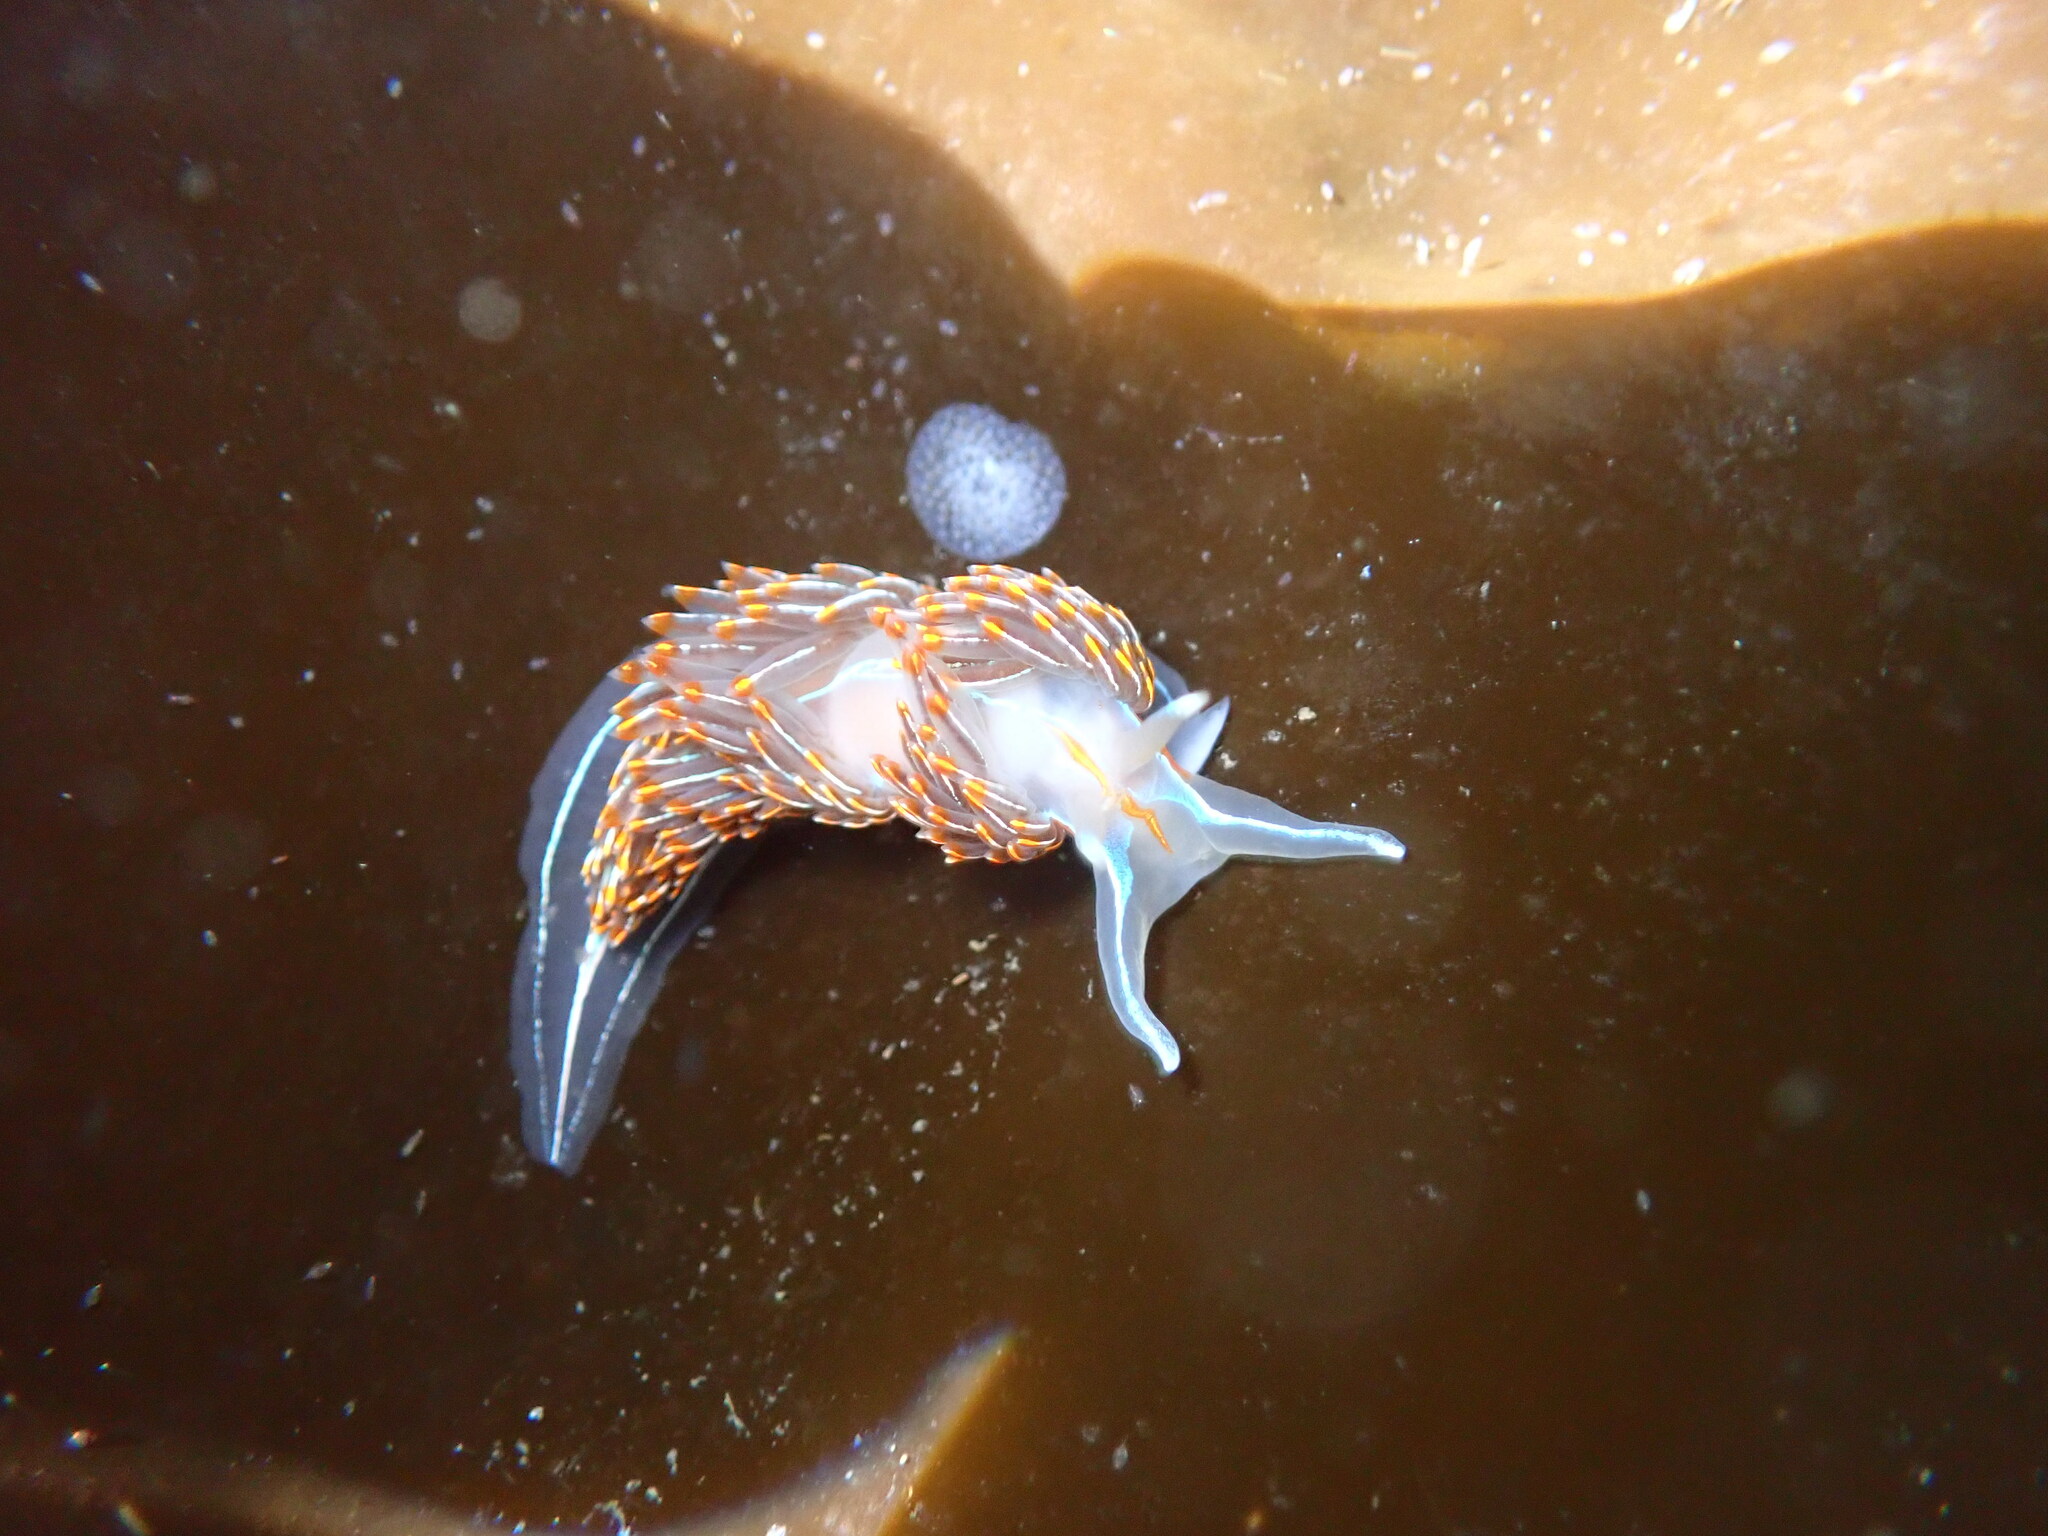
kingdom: Animalia
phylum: Mollusca
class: Gastropoda
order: Nudibranchia
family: Myrrhinidae
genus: Hermissenda
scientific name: Hermissenda crassicornis
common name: Hermissenda
